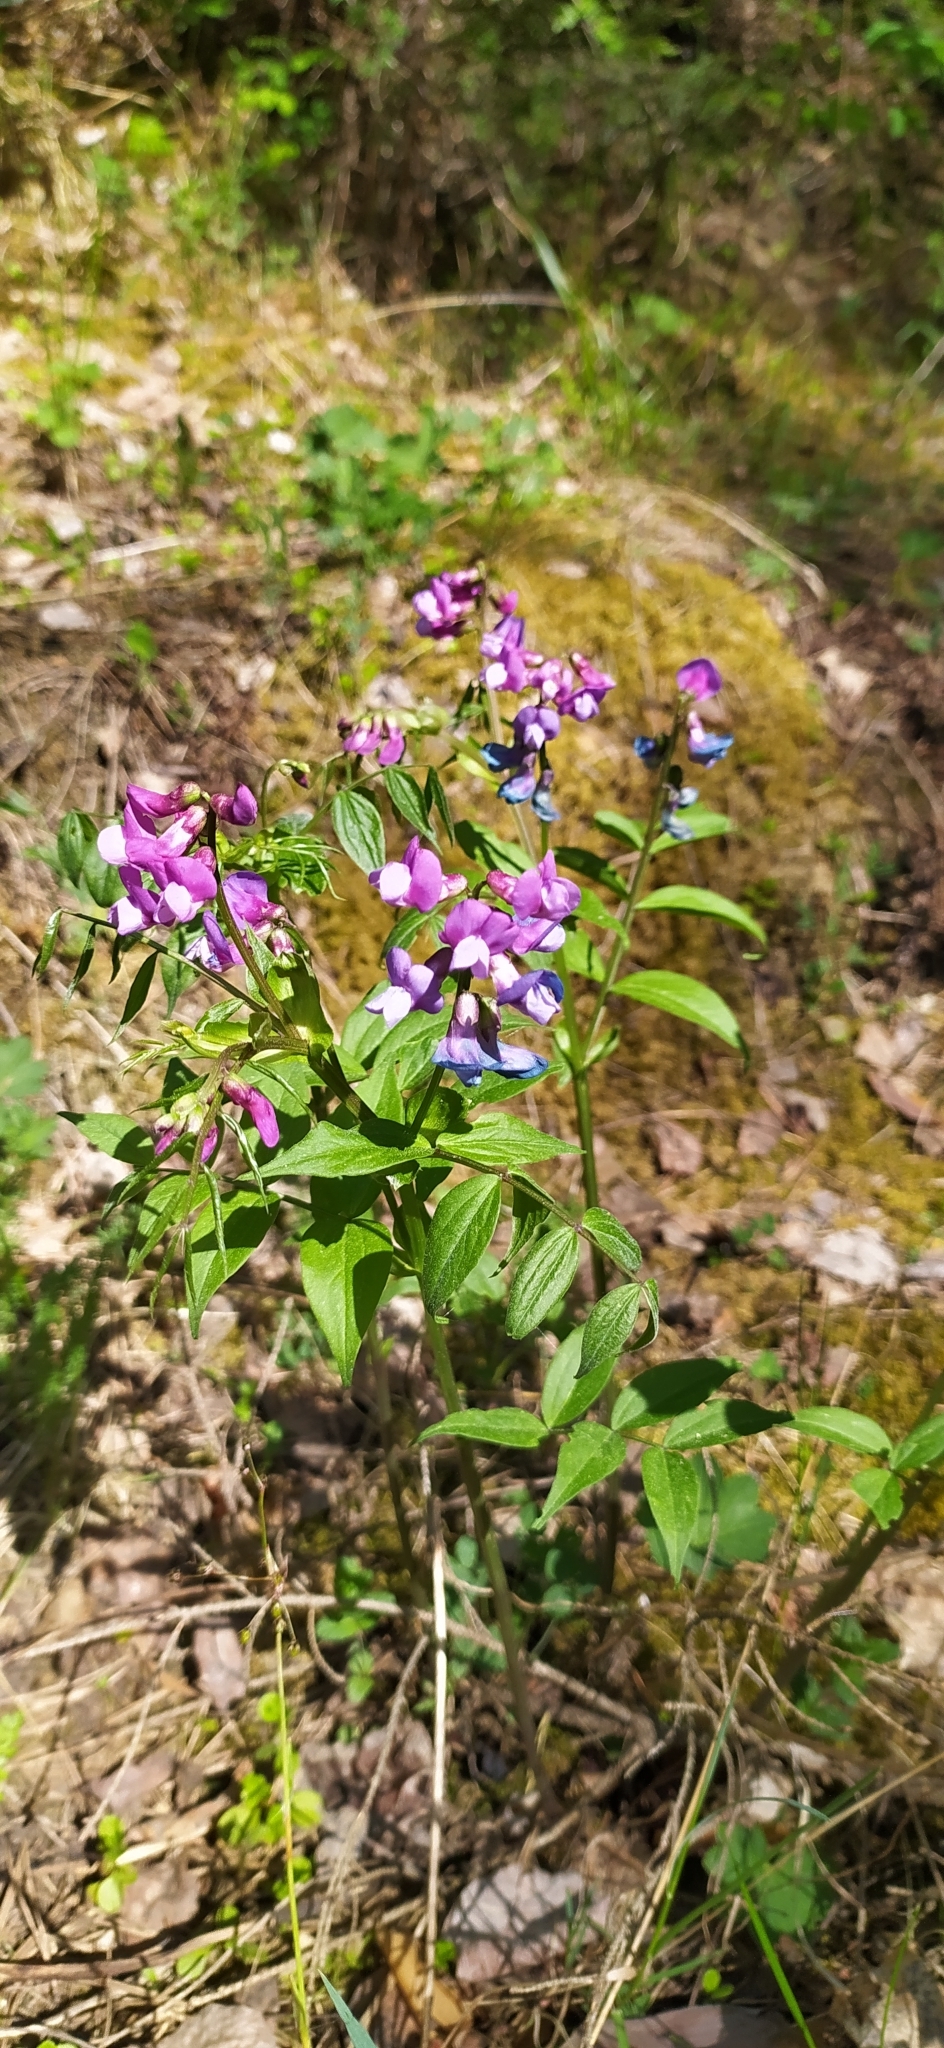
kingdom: Plantae
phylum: Tracheophyta
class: Magnoliopsida
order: Fabales
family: Fabaceae
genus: Lathyrus
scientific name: Lathyrus vernus
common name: Spring pea
